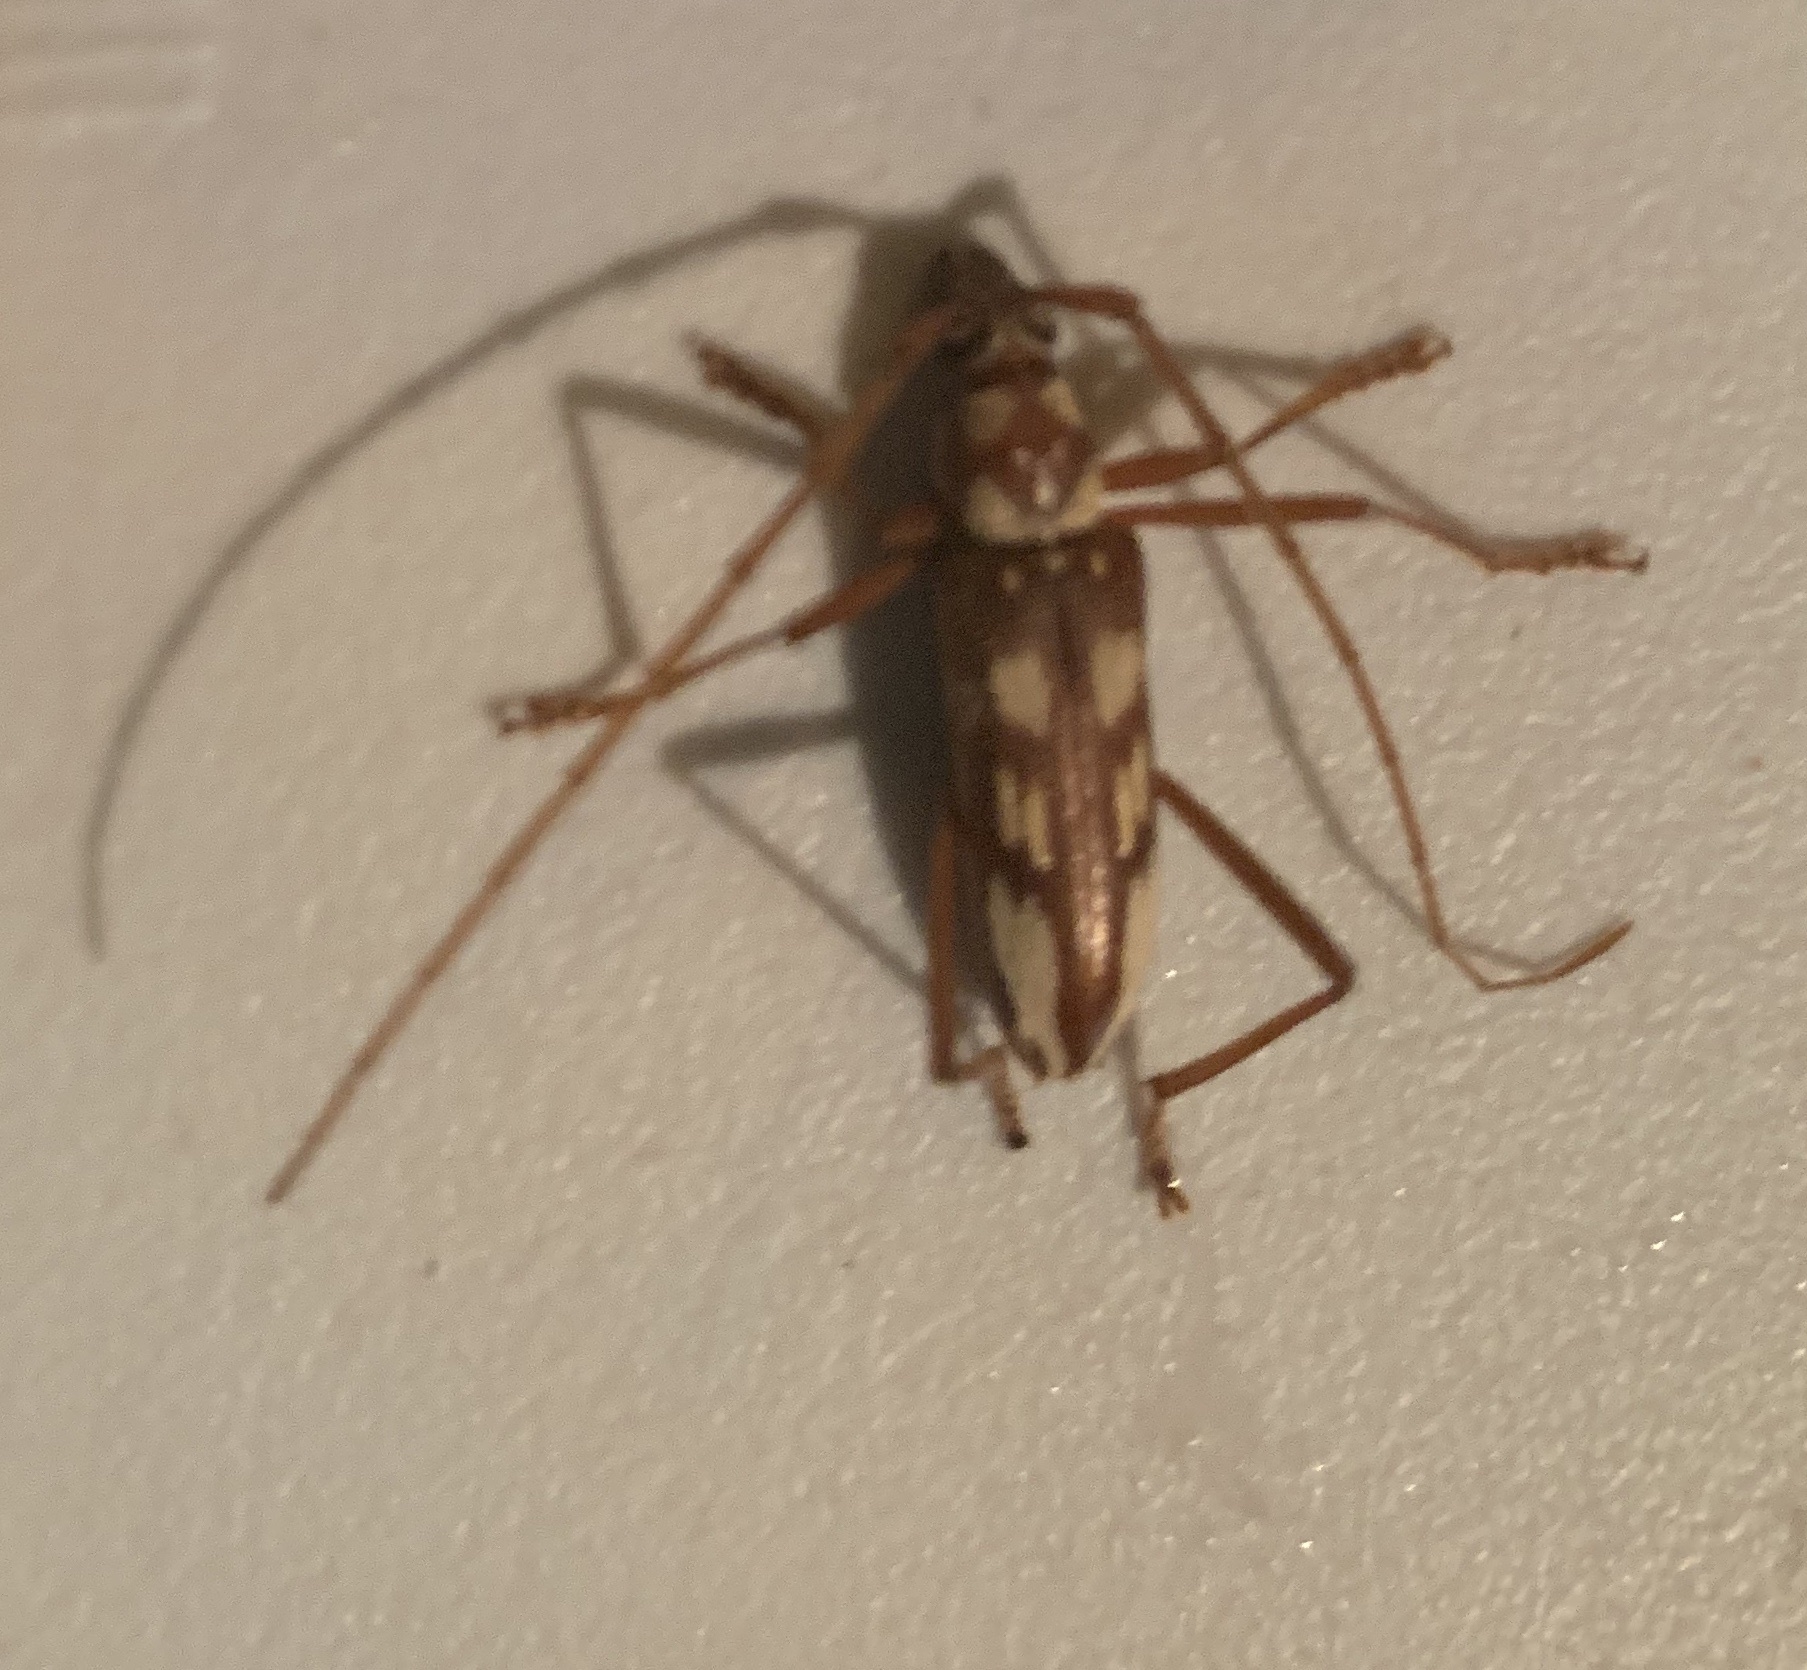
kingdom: Animalia
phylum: Arthropoda
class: Insecta
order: Coleoptera
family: Cerambycidae
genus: Eburia
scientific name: Eburia decemmaculata
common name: Ten-spotted longhorn
